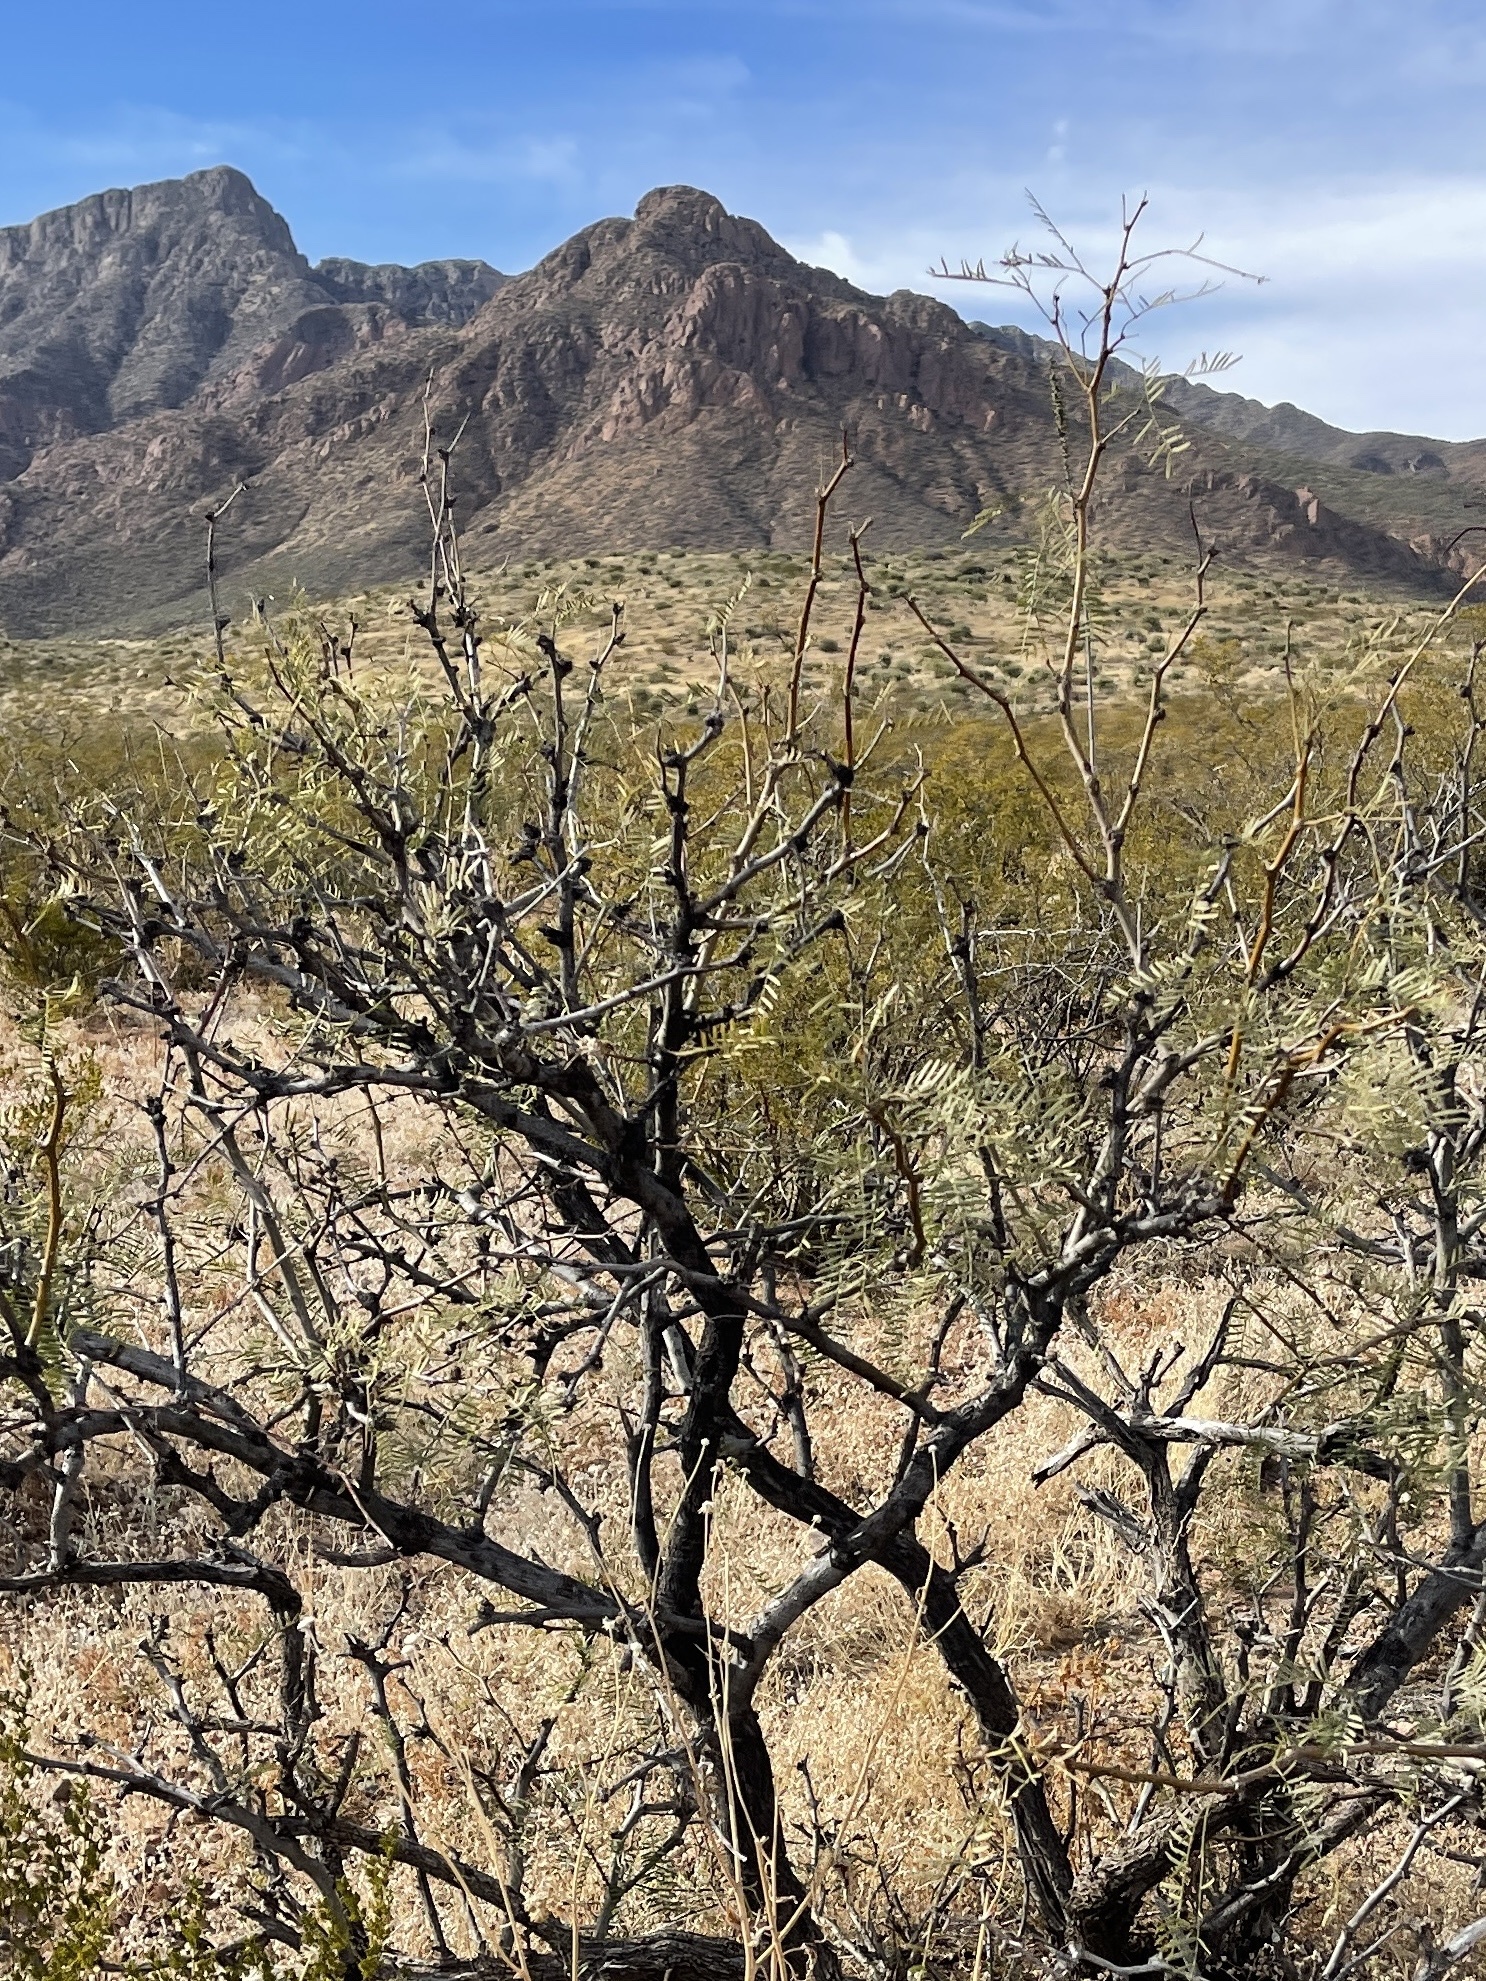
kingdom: Plantae
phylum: Tracheophyta
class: Magnoliopsida
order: Fabales
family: Fabaceae
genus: Prosopis
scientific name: Prosopis glandulosa
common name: Honey mesquite
